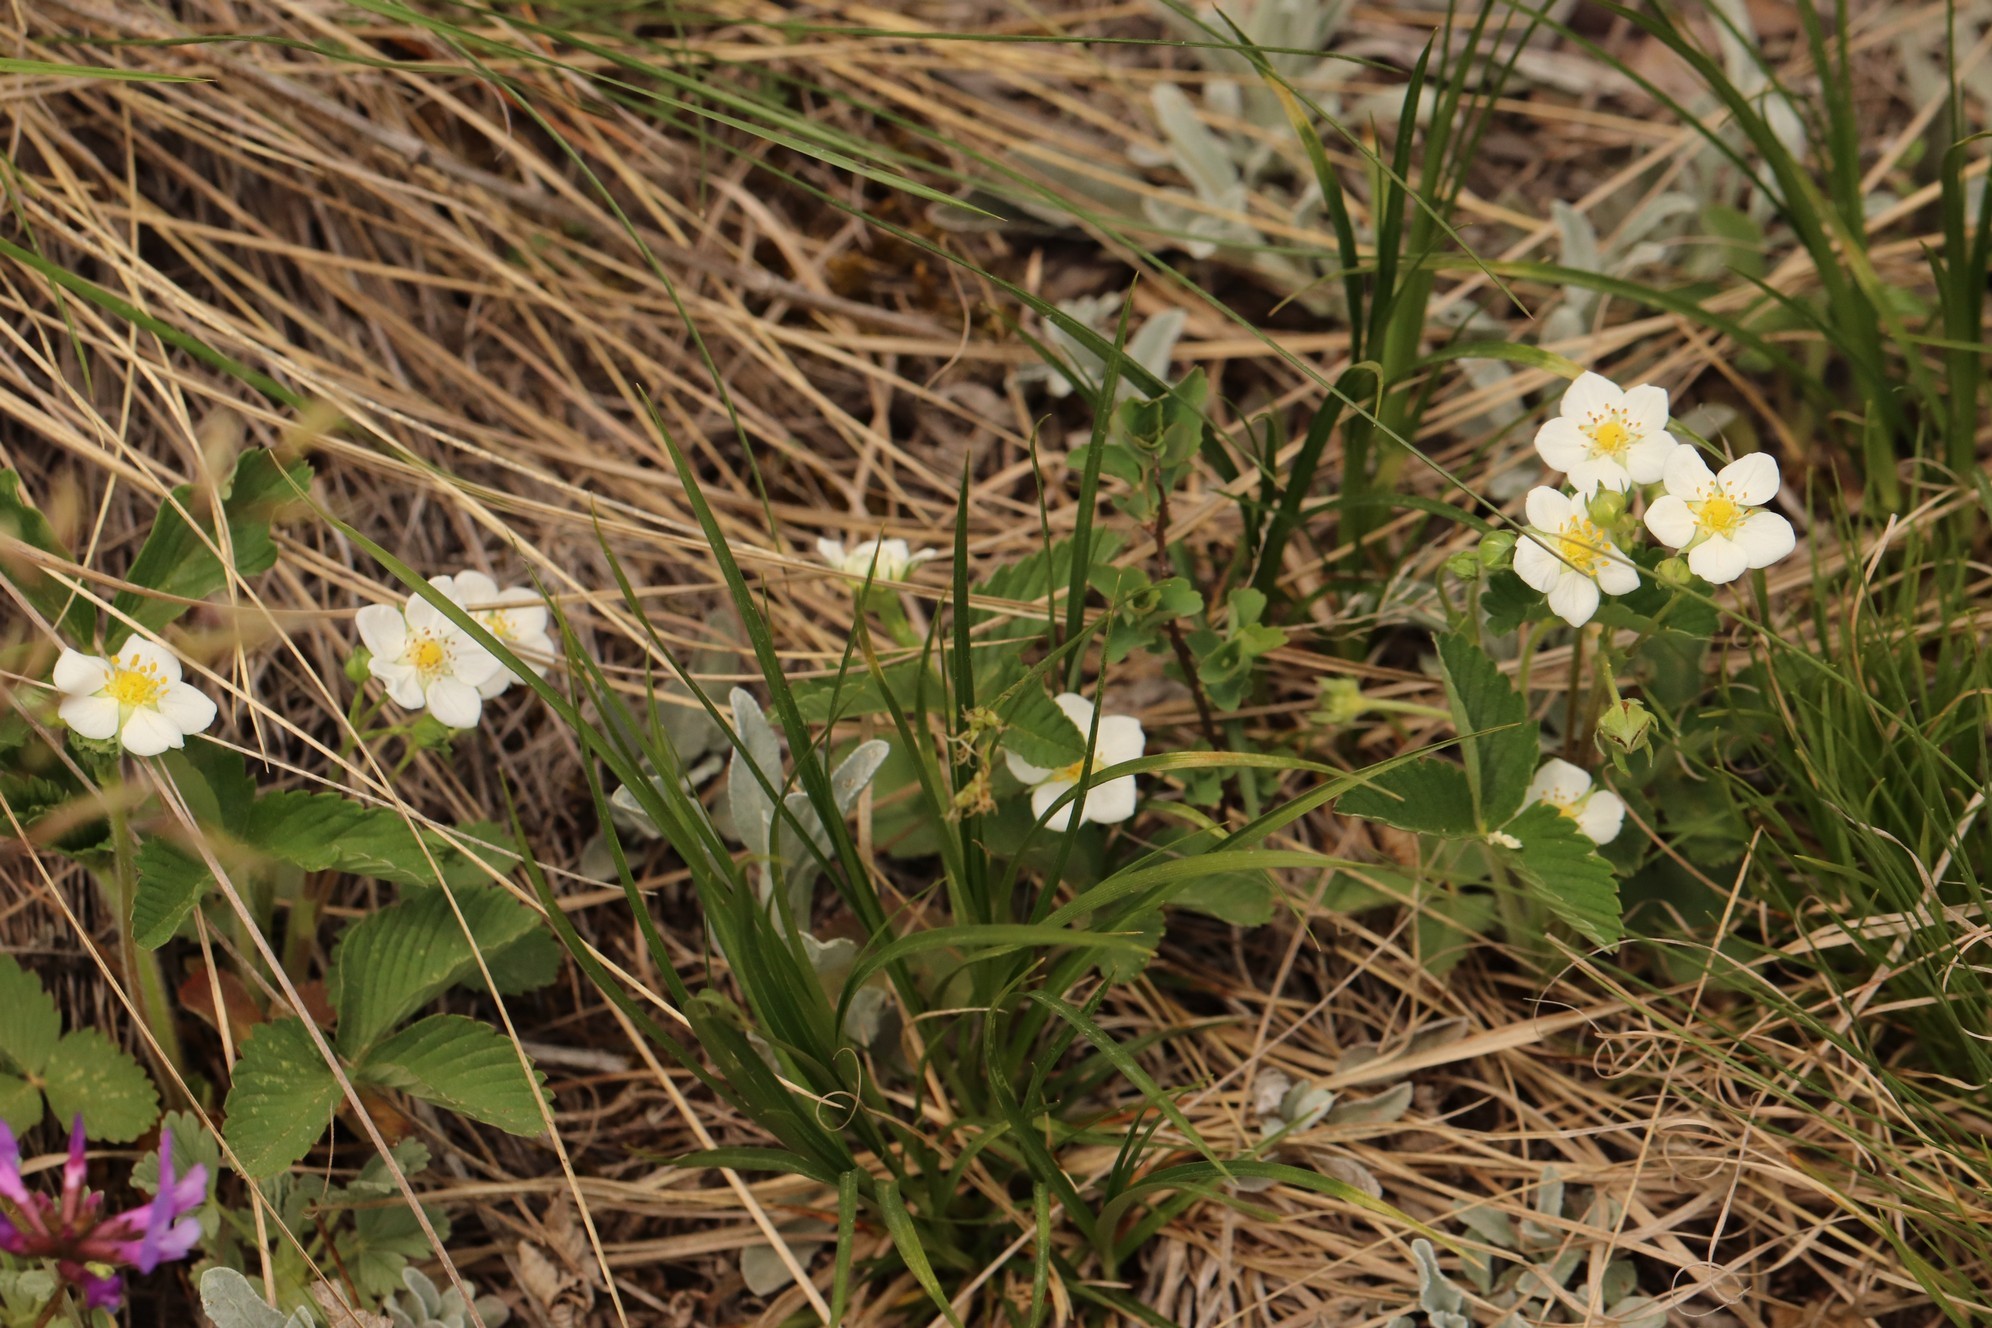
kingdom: Plantae
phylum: Tracheophyta
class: Magnoliopsida
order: Rosales
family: Rosaceae
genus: Fragaria
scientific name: Fragaria viridis
